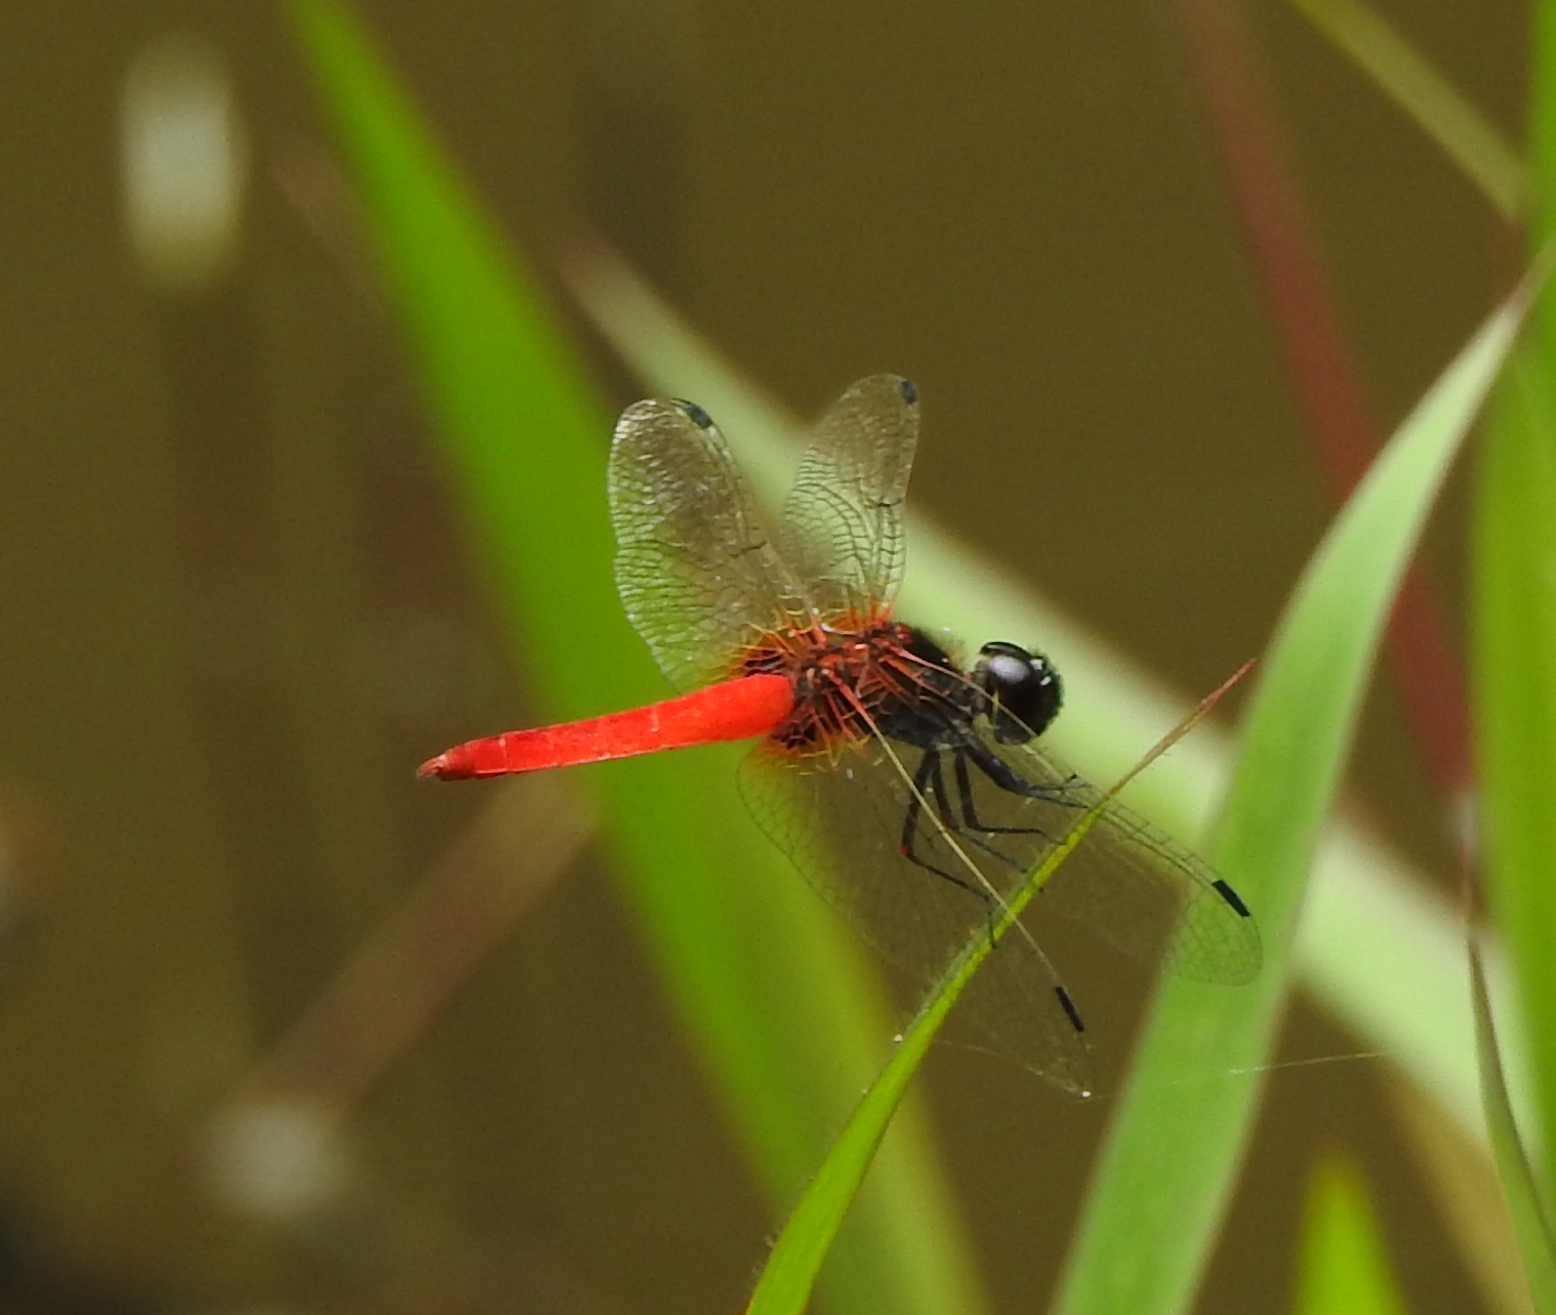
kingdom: Animalia
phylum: Arthropoda
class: Insecta
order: Odonata
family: Libellulidae
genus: Aethriamanta
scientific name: Aethriamanta brevipennis
